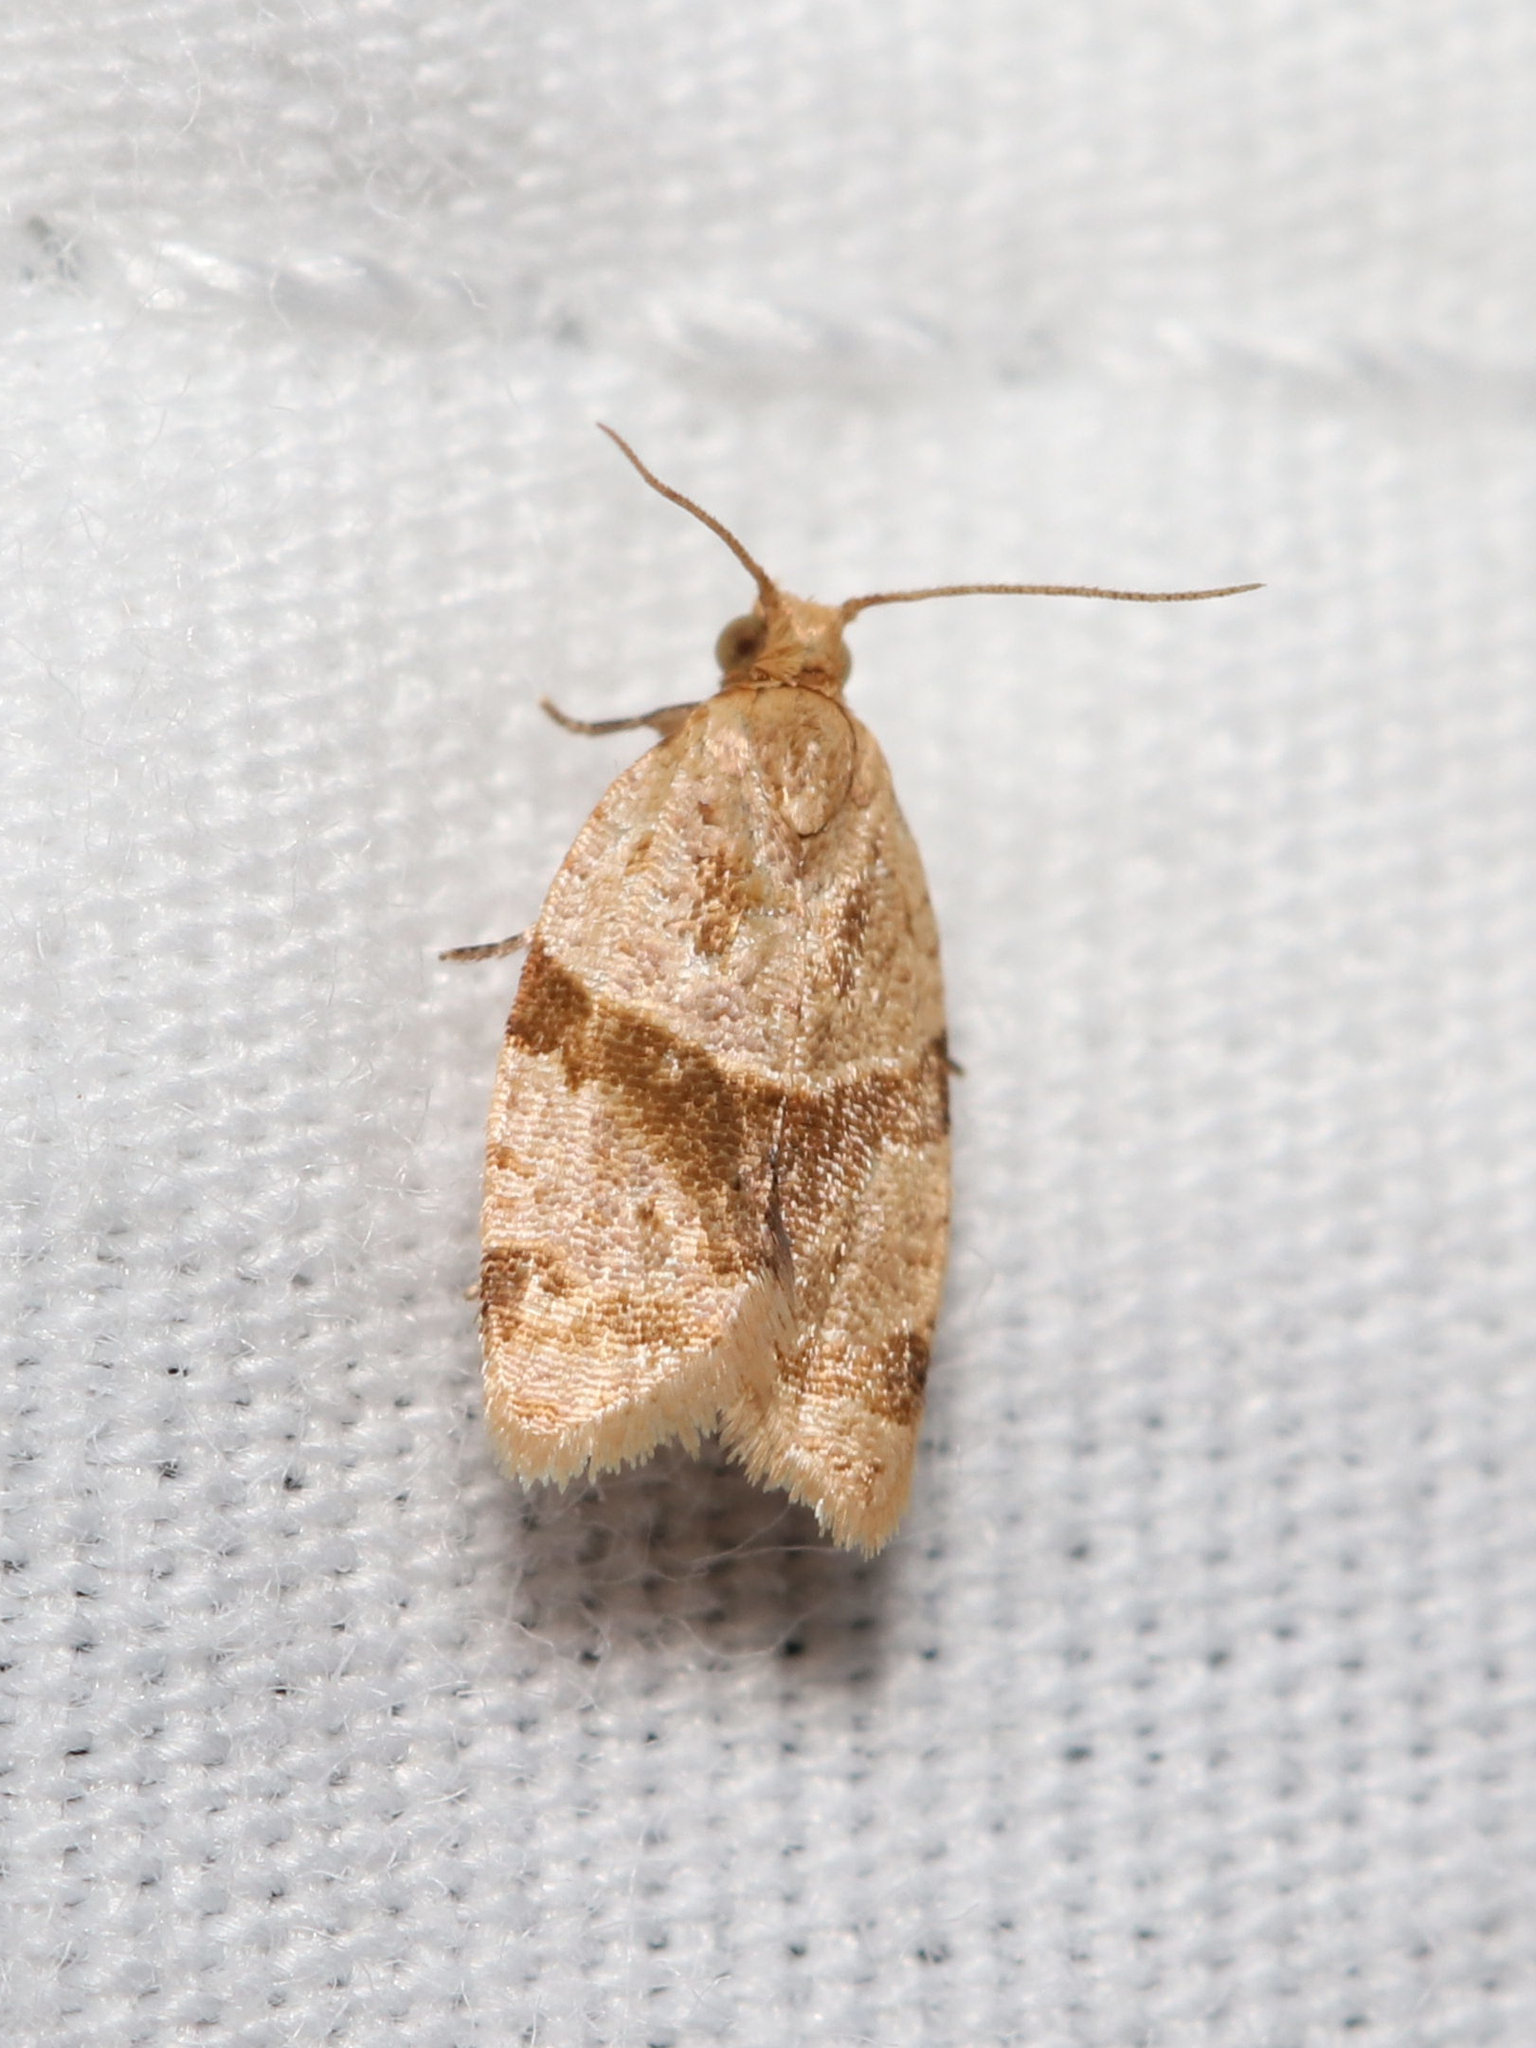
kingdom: Animalia
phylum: Arthropoda
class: Insecta
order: Lepidoptera
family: Tortricidae
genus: Clepsis
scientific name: Clepsis peritana
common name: Garden tortrix
